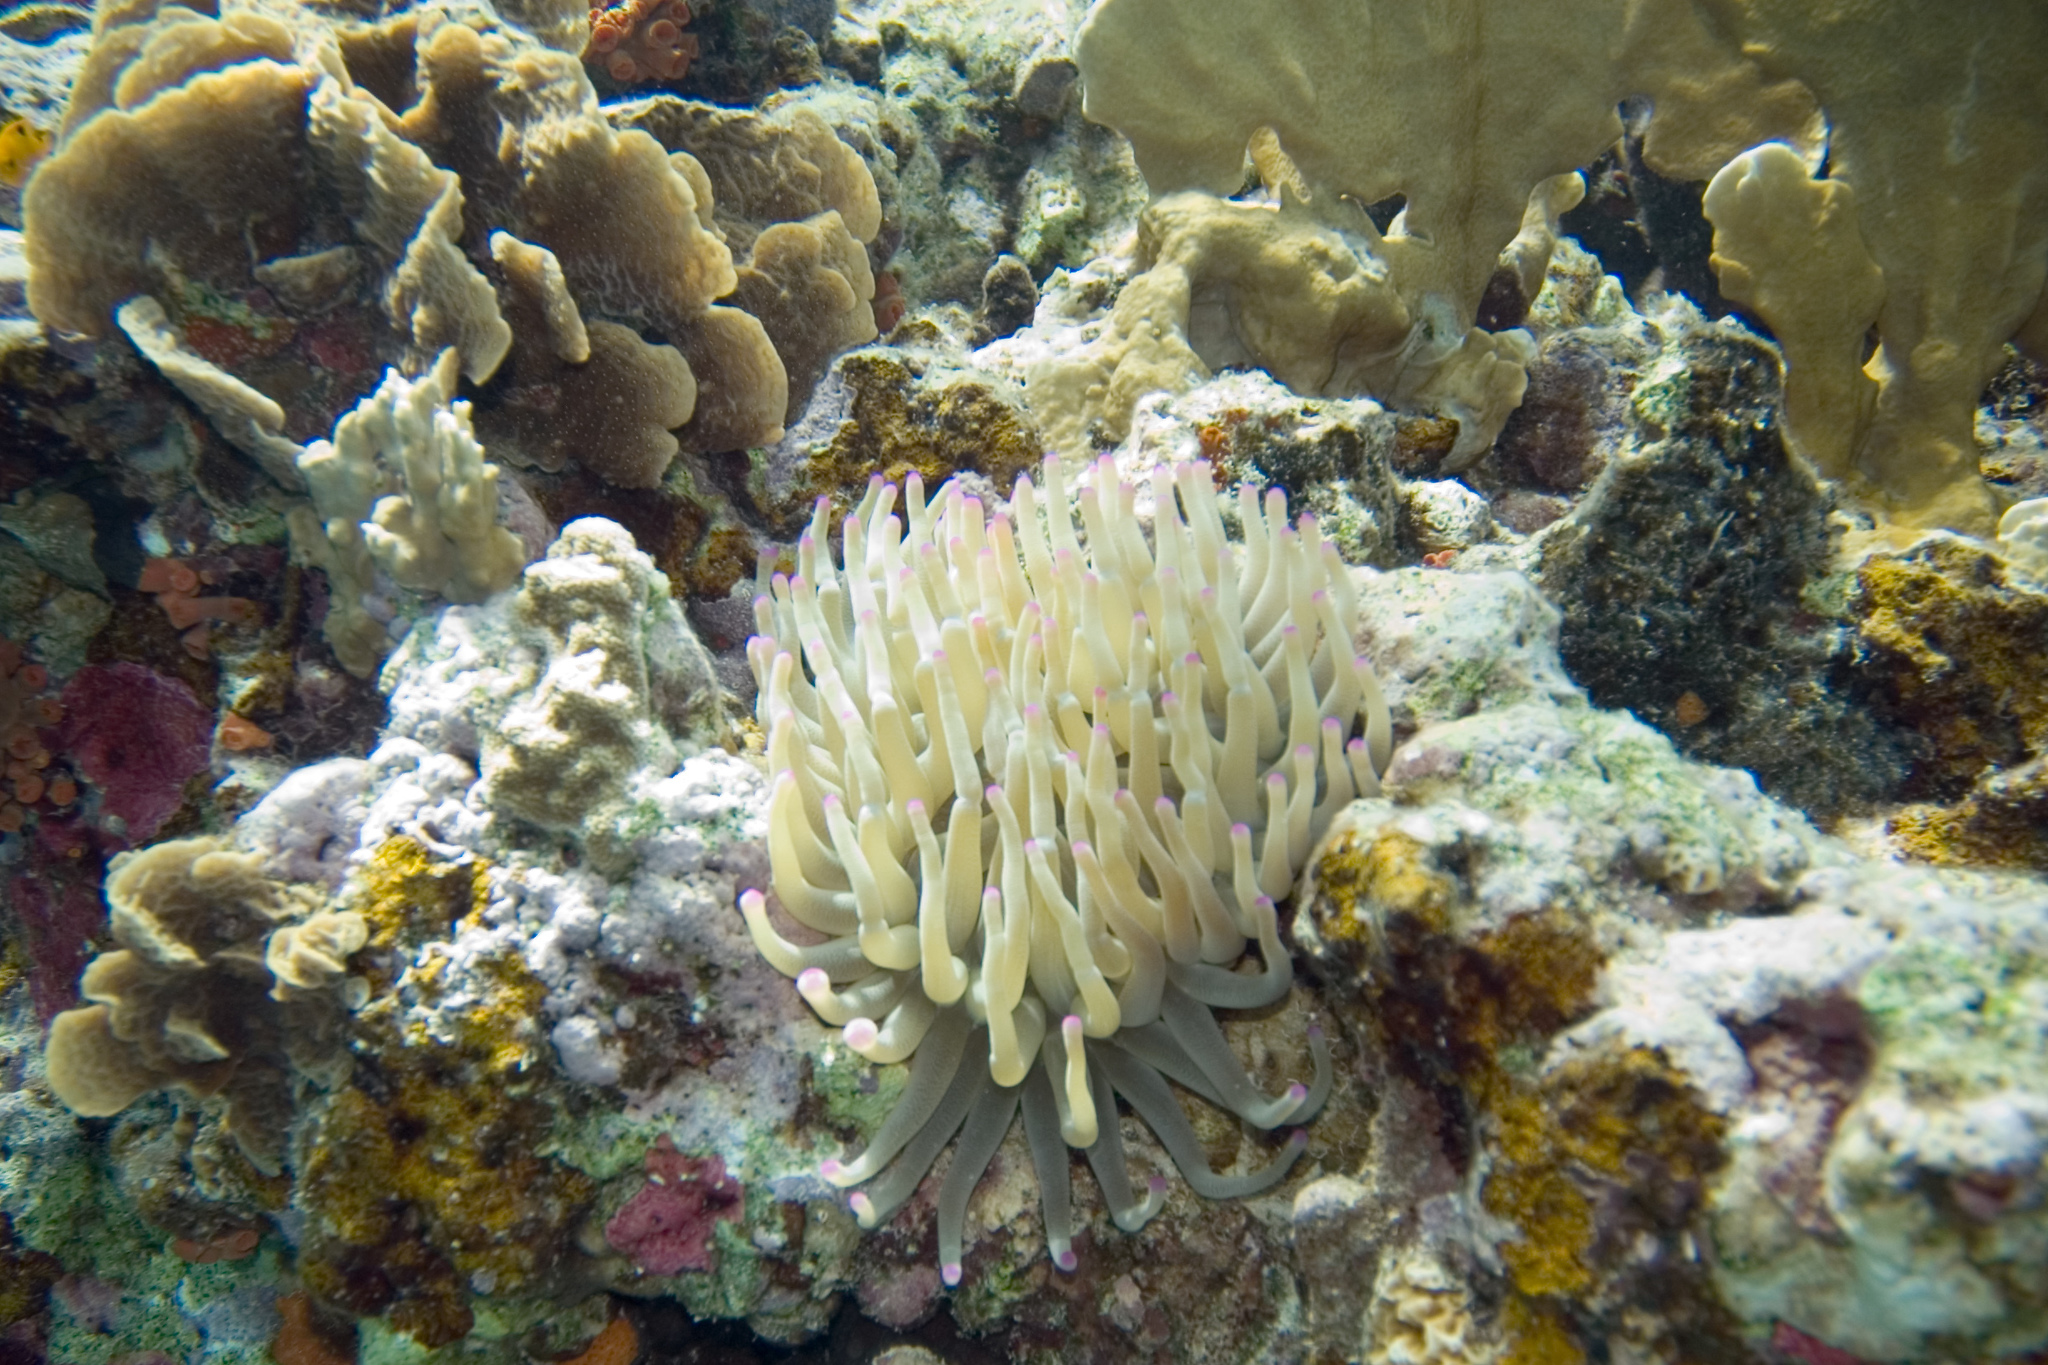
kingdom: Animalia
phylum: Cnidaria
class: Anthozoa
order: Actiniaria
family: Actiniidae
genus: Condylactis
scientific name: Condylactis gigantea
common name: Giant caribbean anemone
